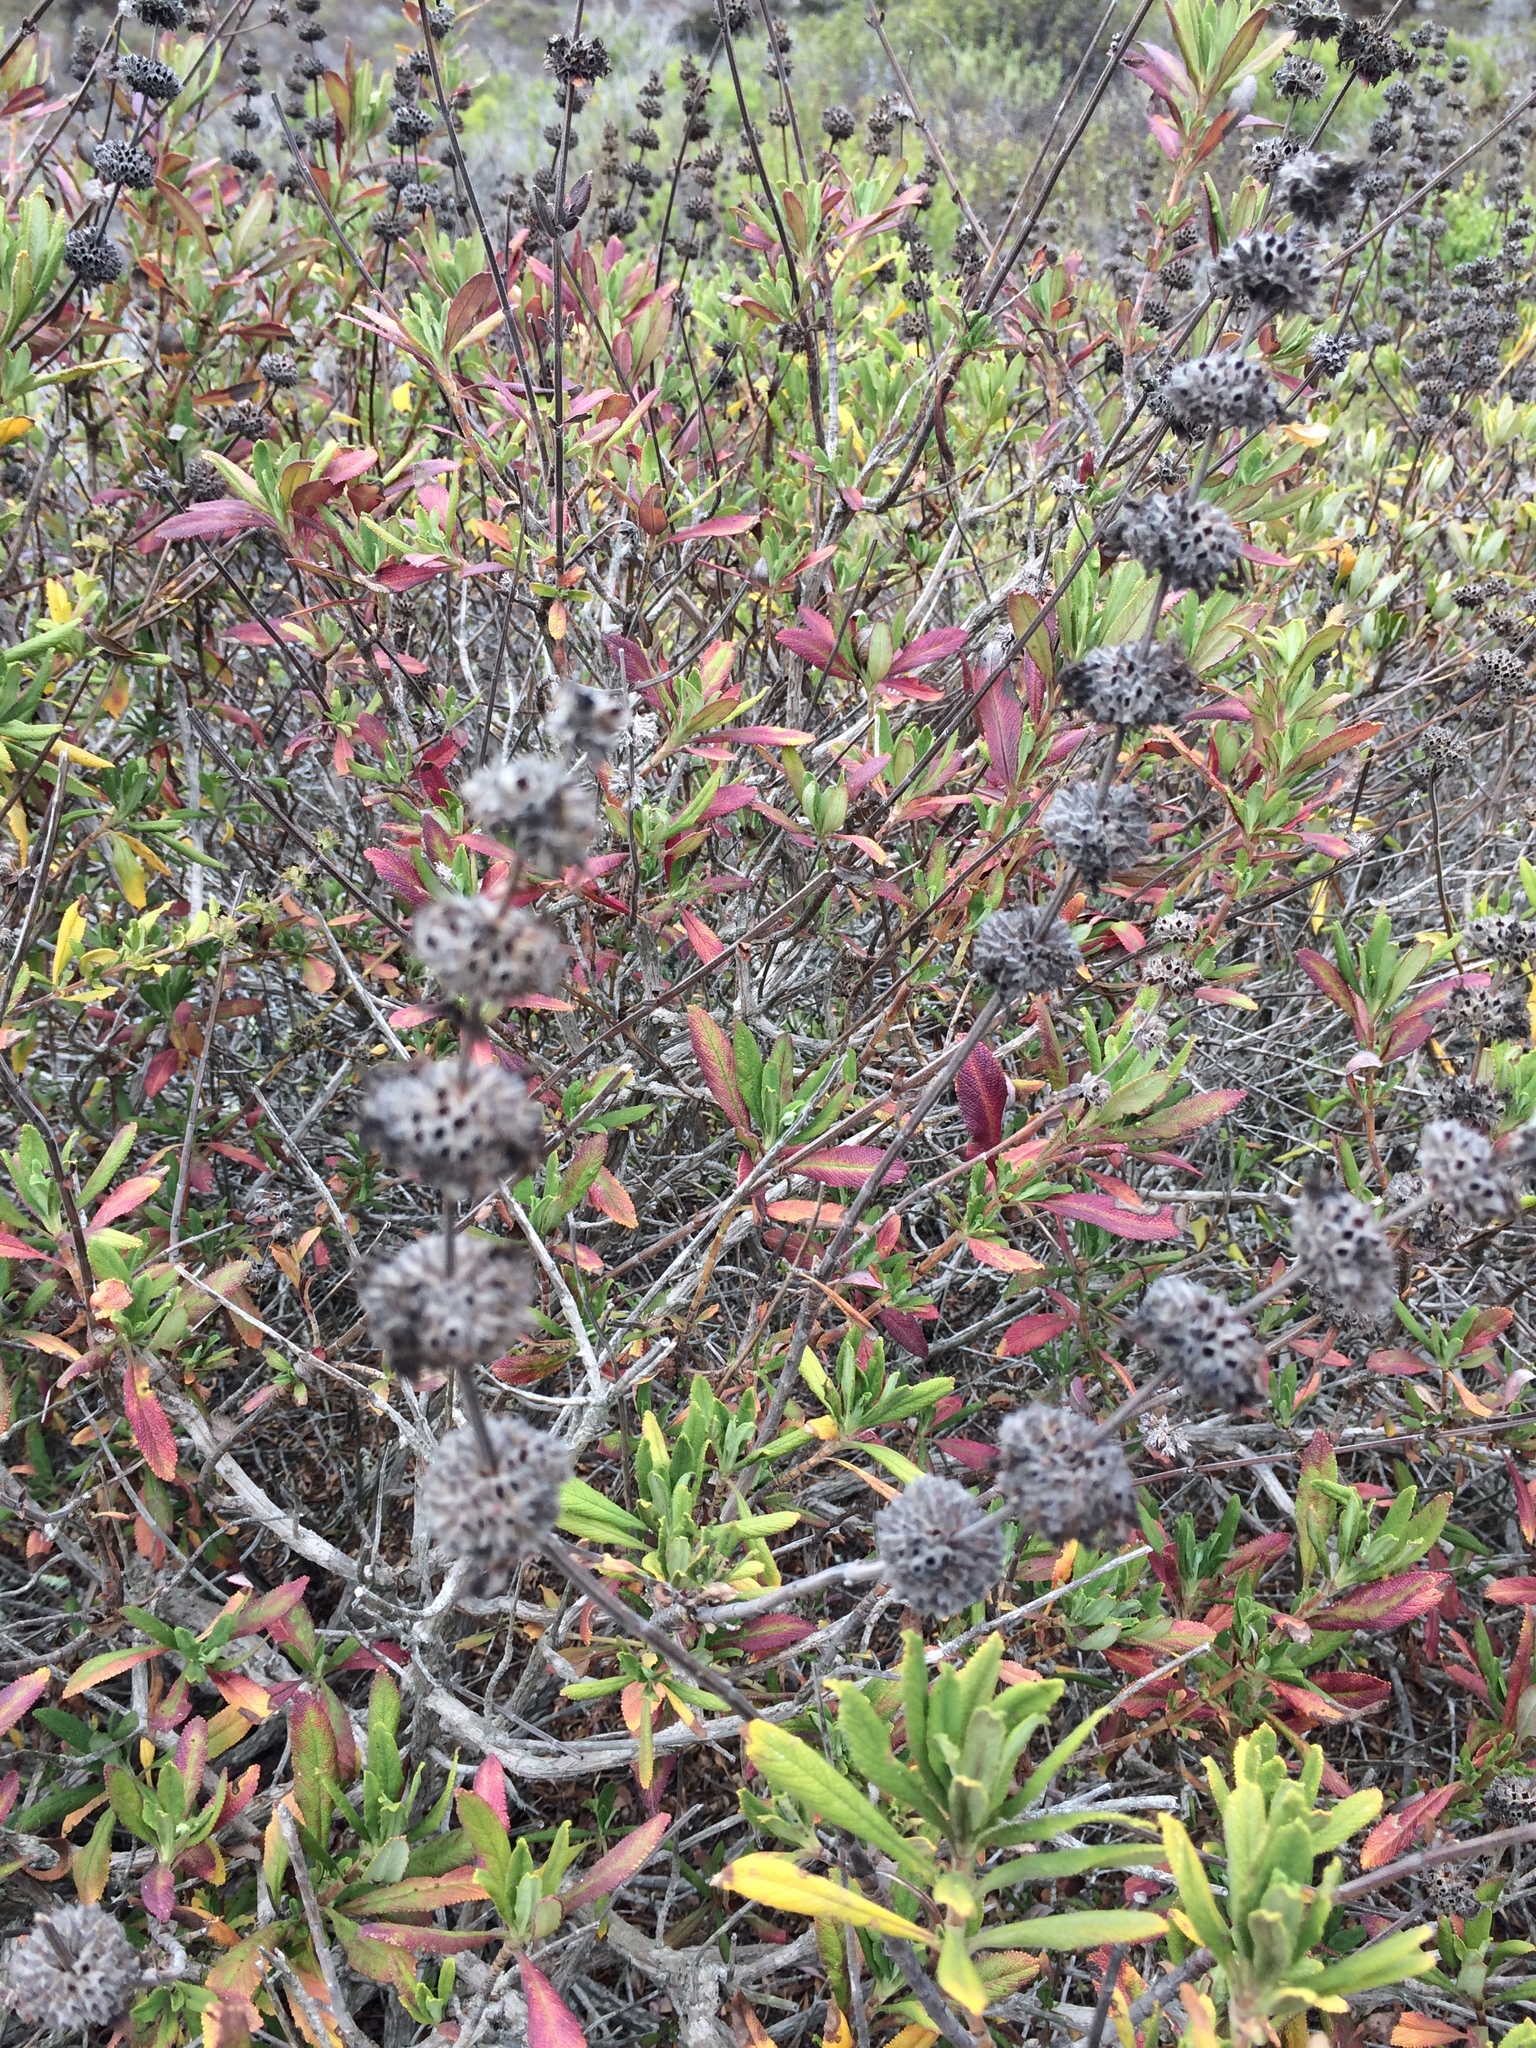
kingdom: Plantae
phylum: Tracheophyta
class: Magnoliopsida
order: Lamiales
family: Lamiaceae
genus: Salvia
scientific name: Salvia mellifera
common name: Black sage
